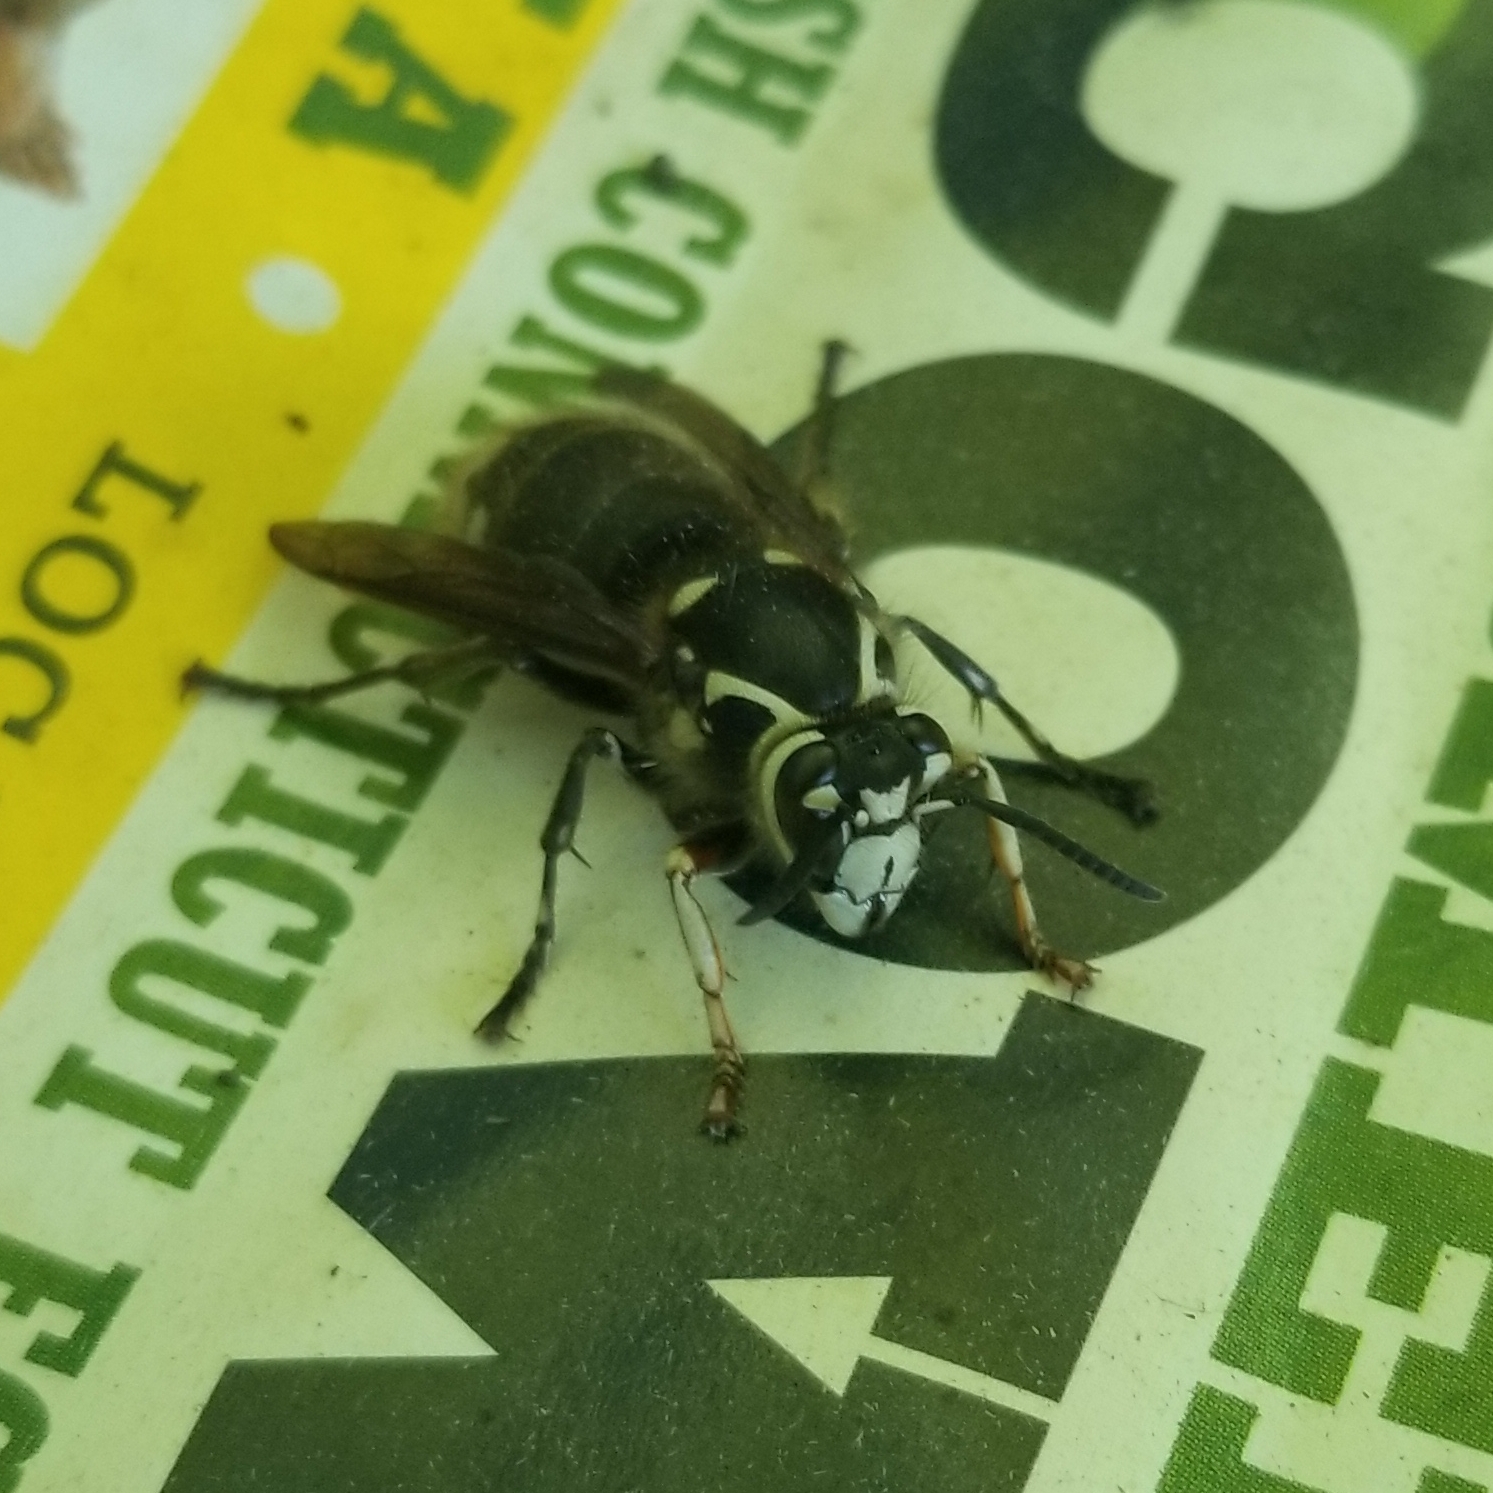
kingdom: Animalia
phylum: Arthropoda
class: Insecta
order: Hymenoptera
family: Vespidae
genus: Dolichovespula
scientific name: Dolichovespula maculata
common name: Bald-faced hornet
